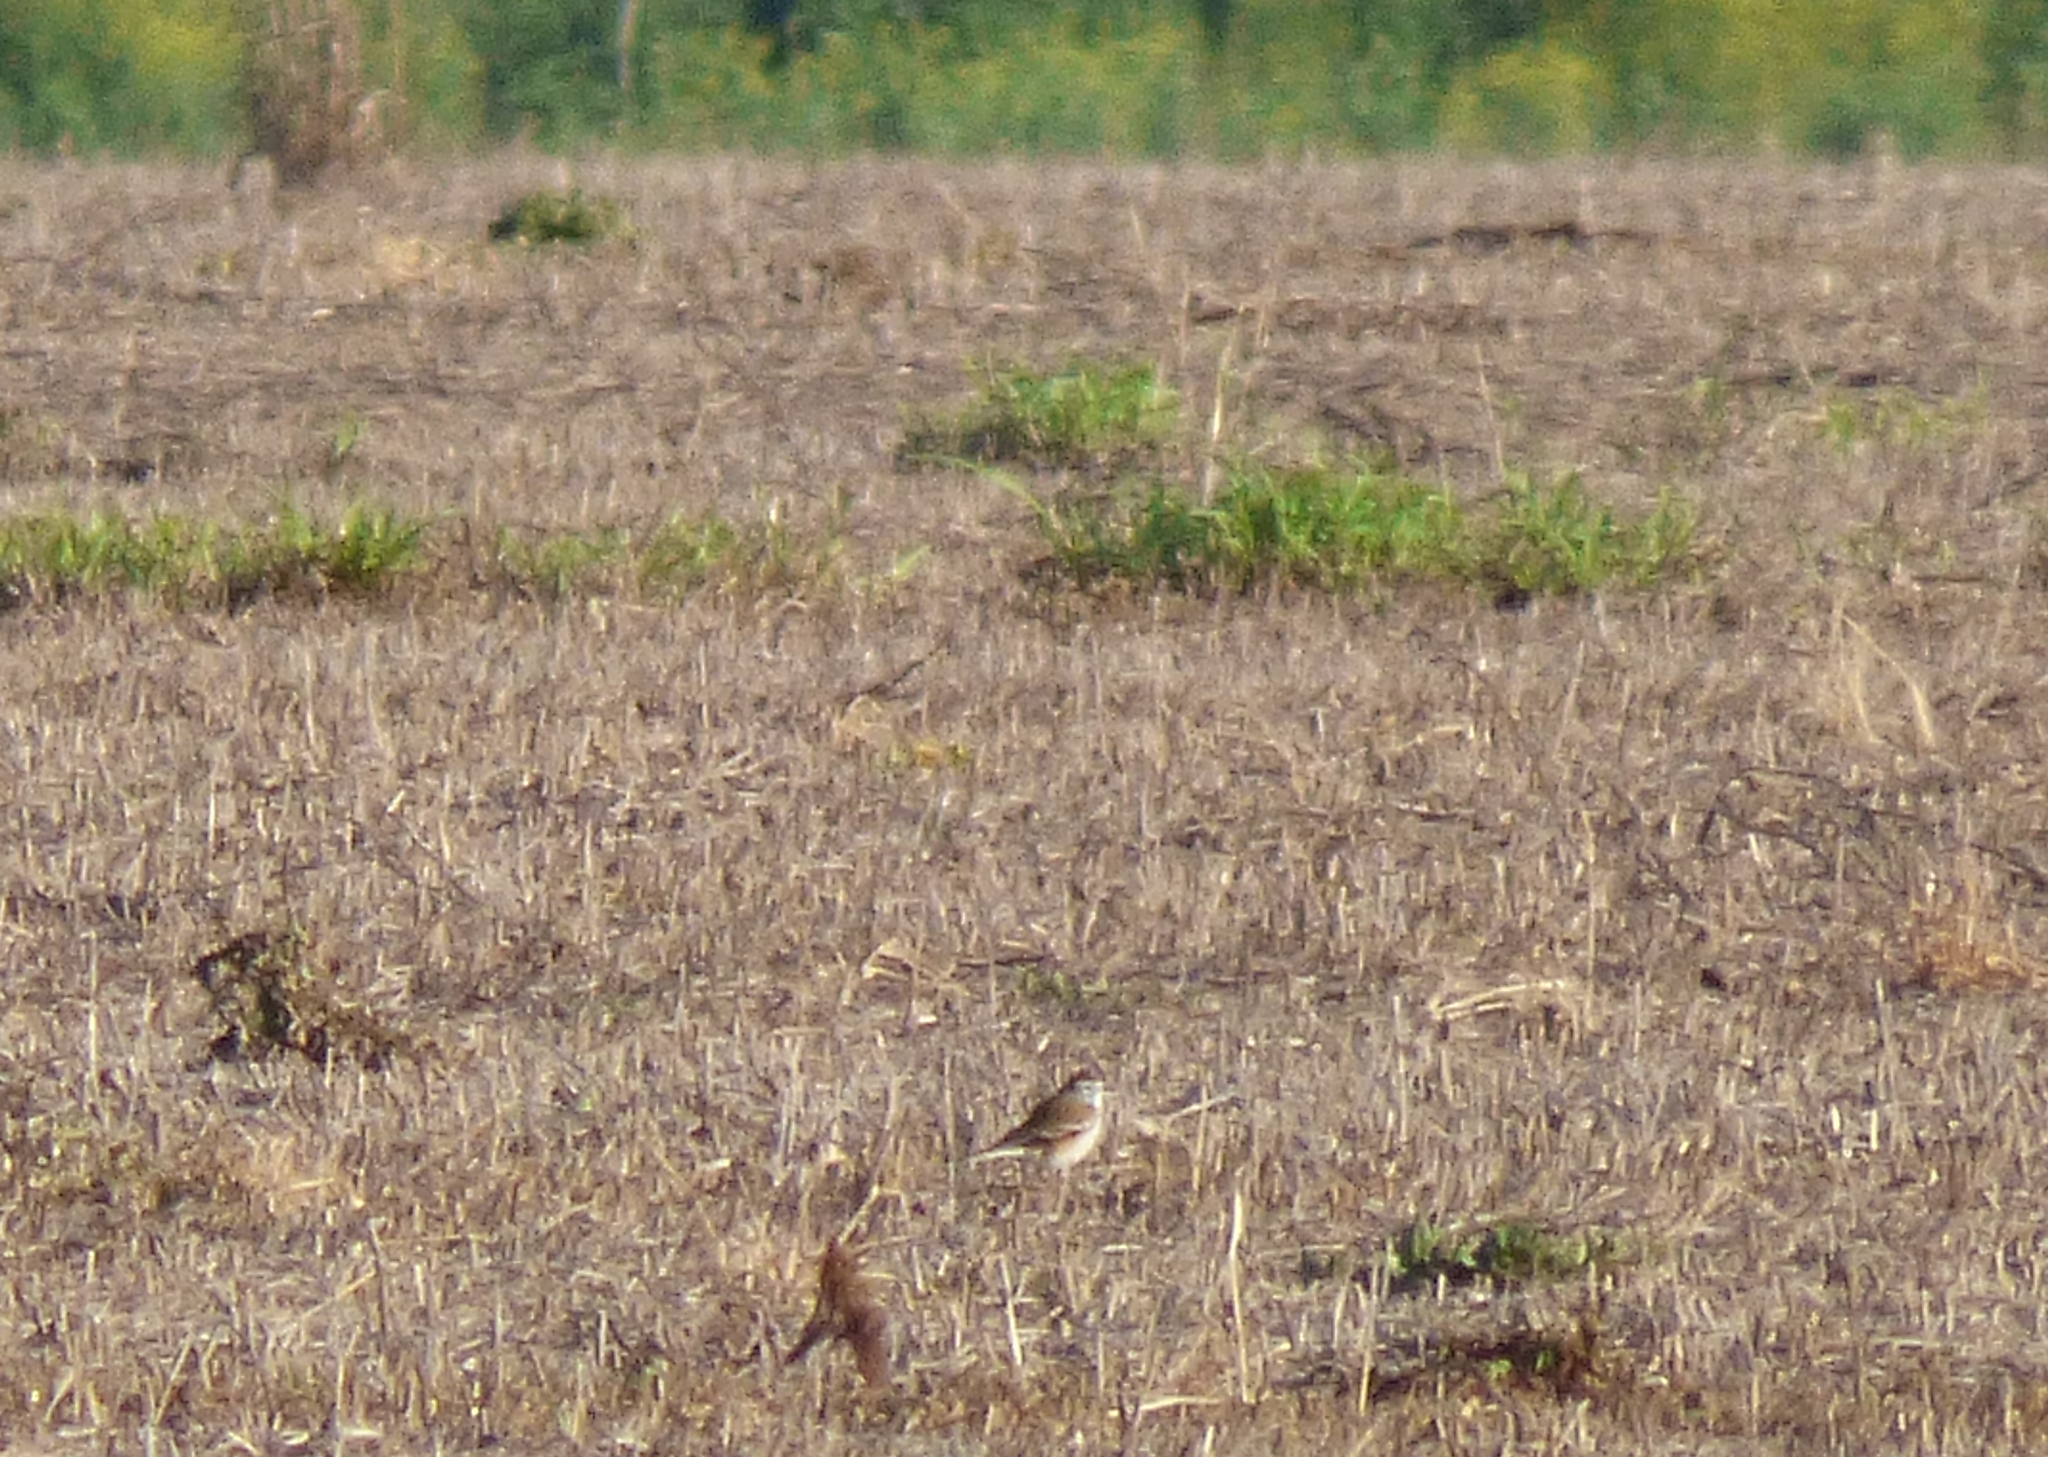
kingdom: Animalia
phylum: Chordata
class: Aves
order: Passeriformes
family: Tyrannidae
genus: Xolmis
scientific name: Xolmis rubetra
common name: Rusty-backed monjita
